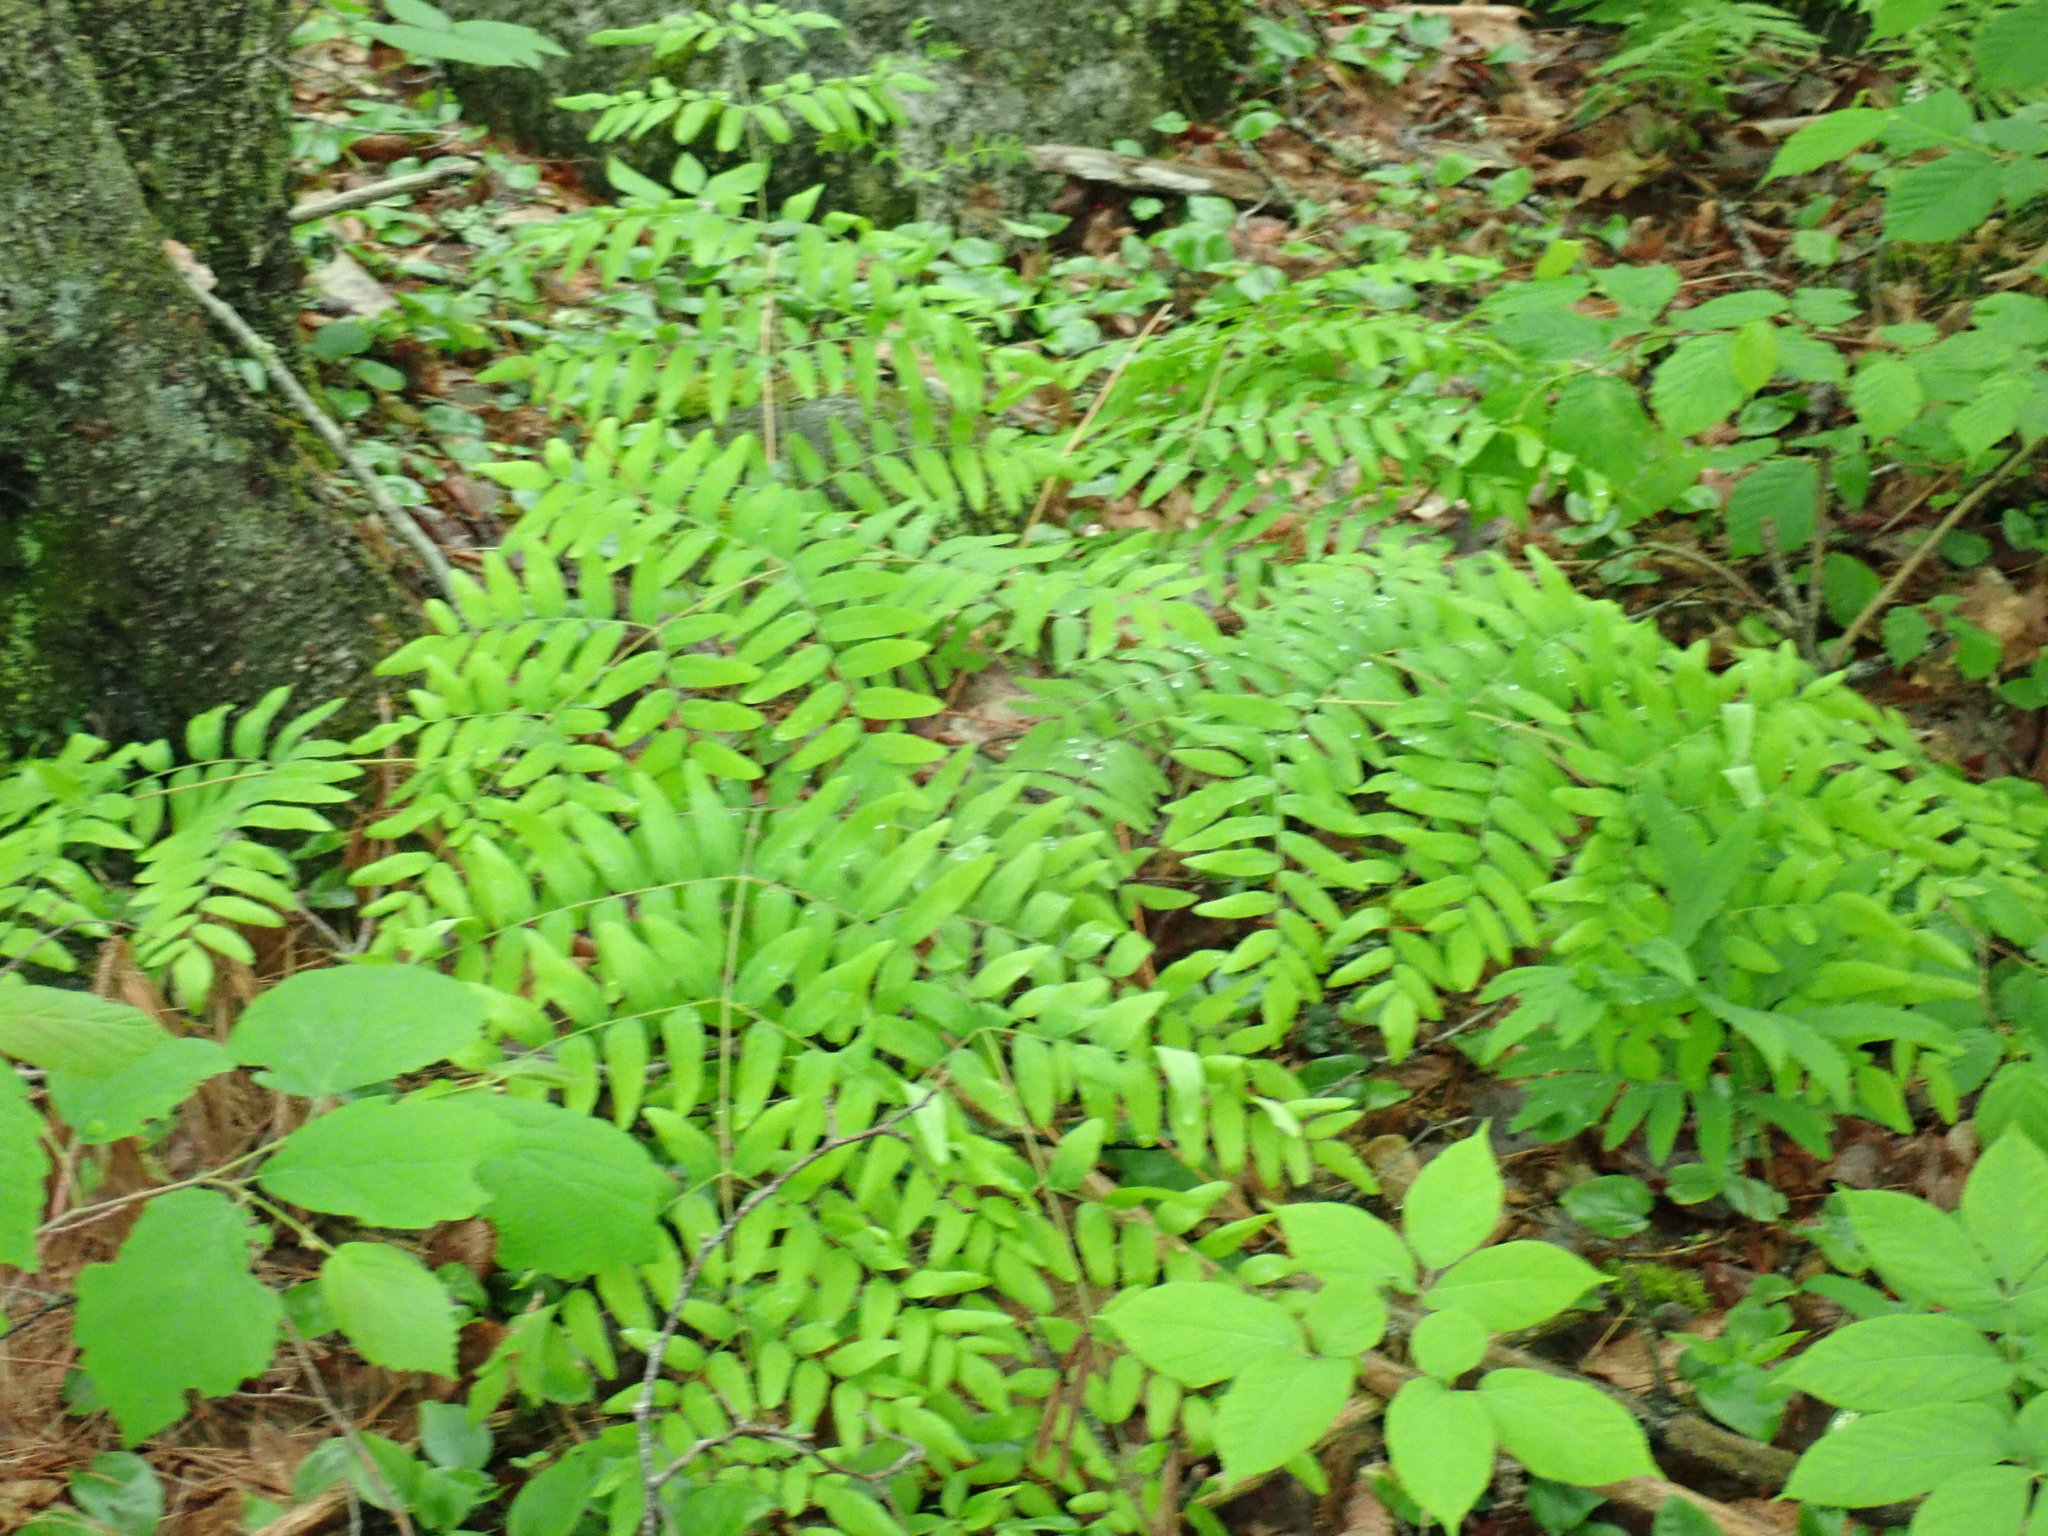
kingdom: Plantae
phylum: Tracheophyta
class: Polypodiopsida
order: Osmundales
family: Osmundaceae
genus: Osmunda
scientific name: Osmunda spectabilis
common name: American royal fern
